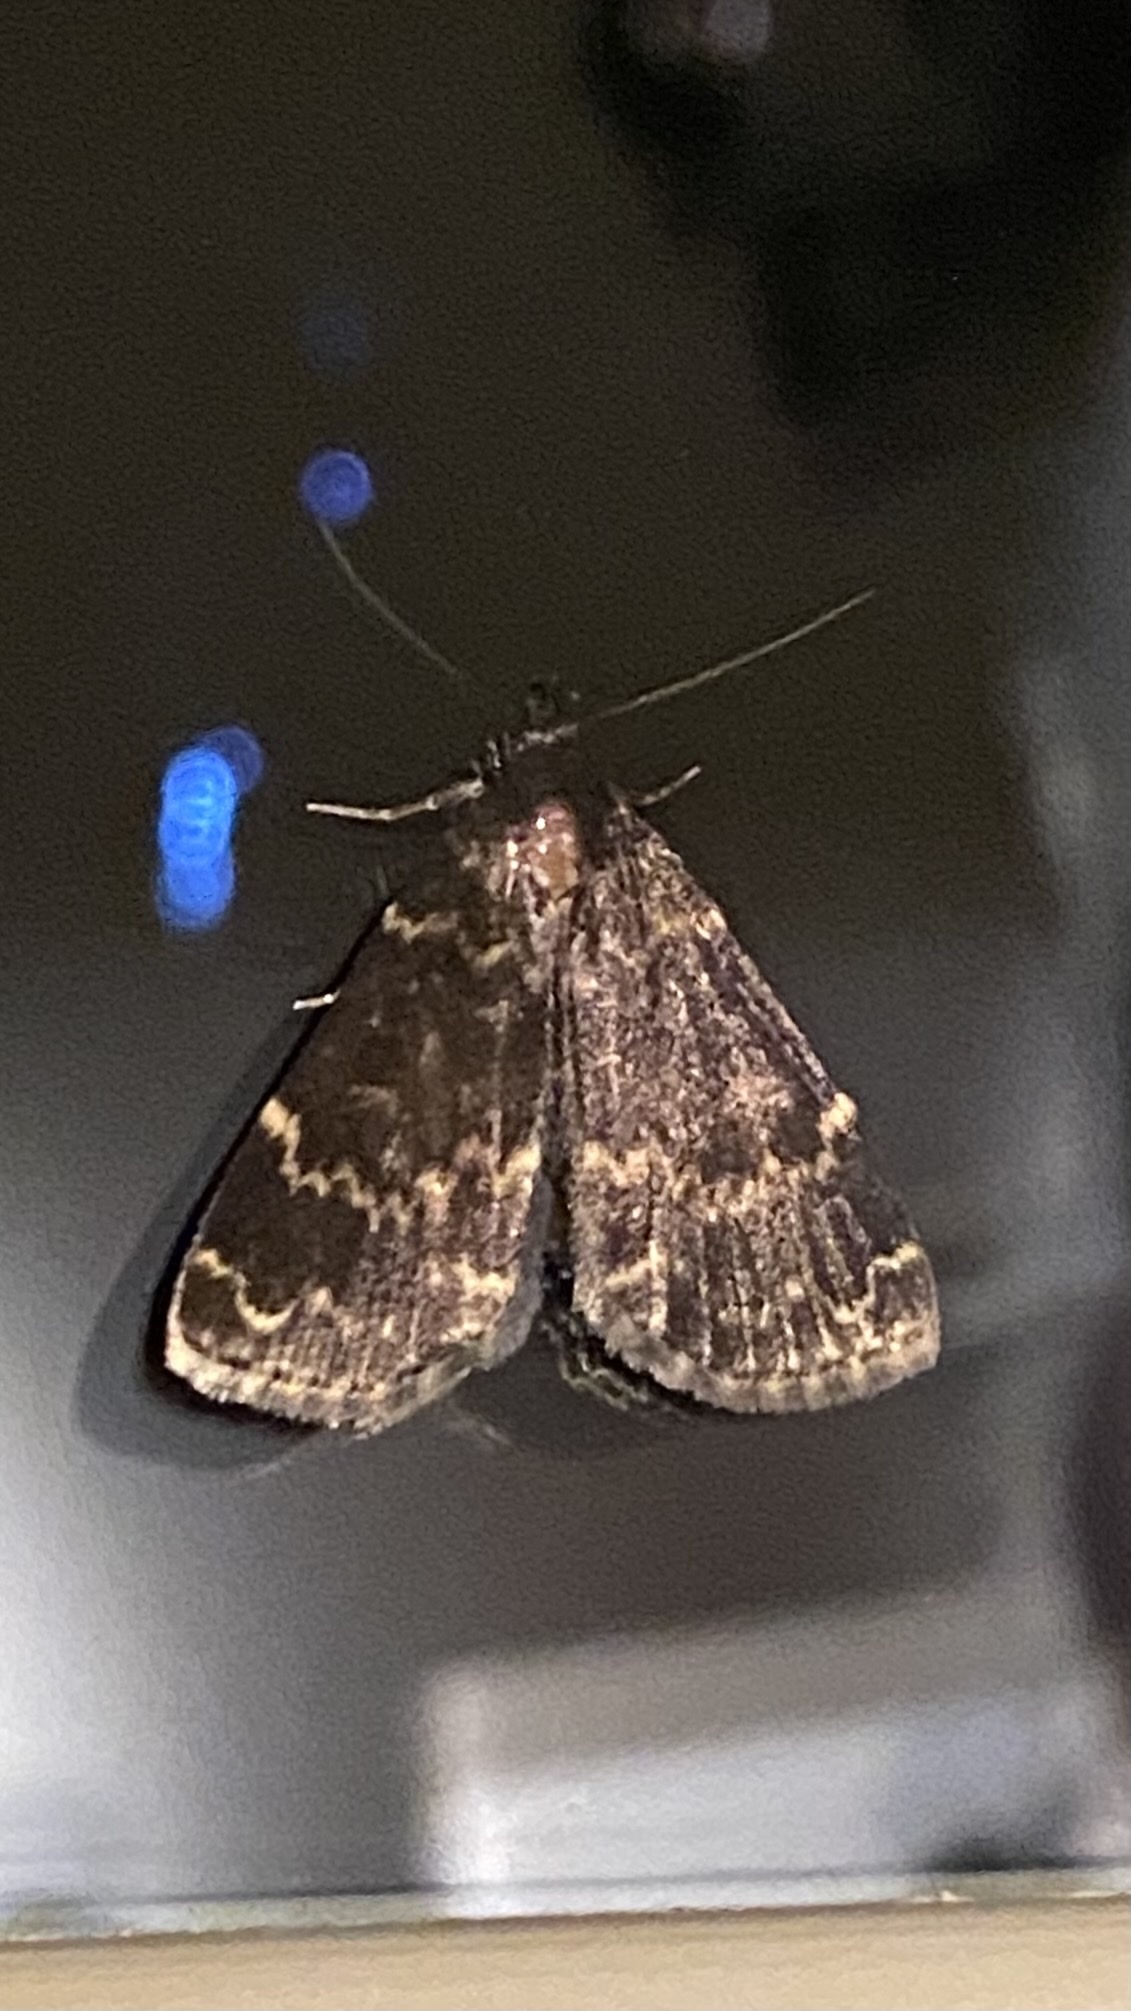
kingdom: Animalia
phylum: Arthropoda
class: Insecta
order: Lepidoptera
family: Erebidae
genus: Idia
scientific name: Idia lubricalis
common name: Twin-striped tabby
